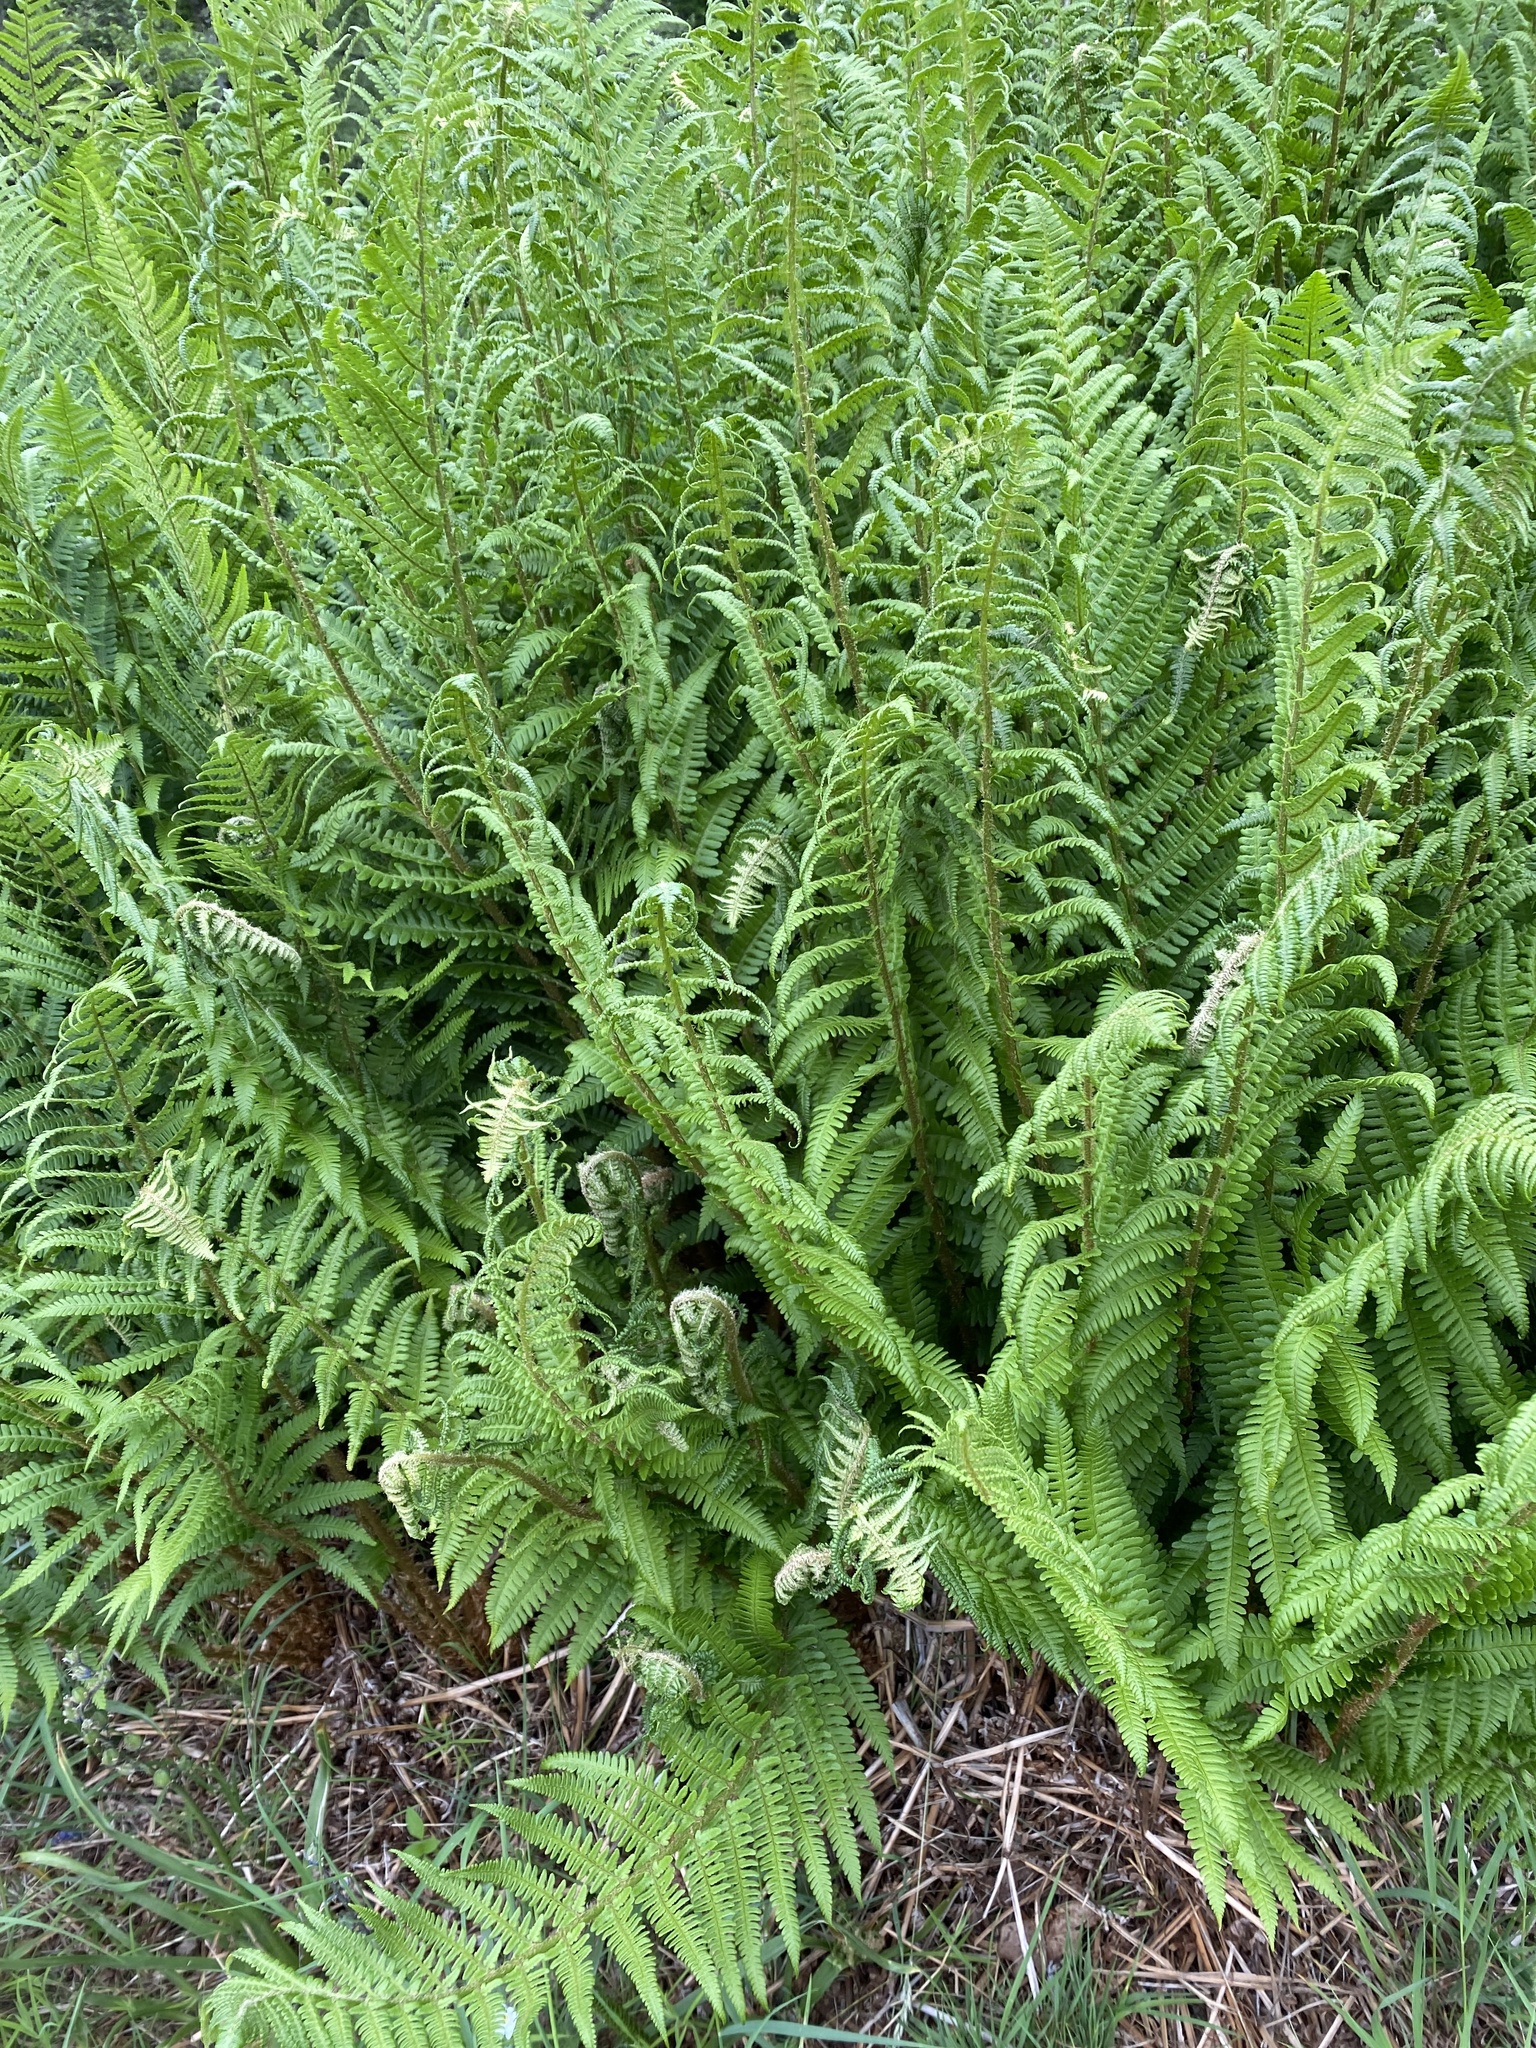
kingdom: Plantae
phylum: Tracheophyta
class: Polypodiopsida
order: Polypodiales
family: Dryopteridaceae
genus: Dryopteris
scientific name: Dryopteris filix-mas
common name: Male fern
